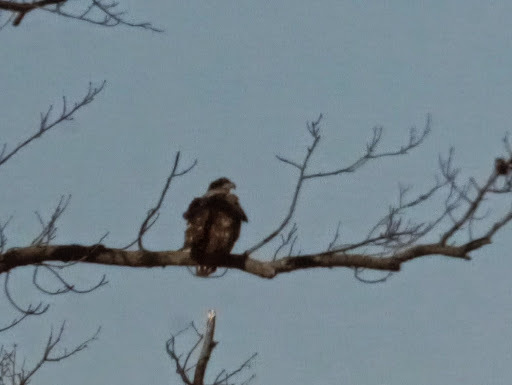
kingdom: Animalia
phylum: Chordata
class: Aves
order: Accipitriformes
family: Accipitridae
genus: Haliaeetus
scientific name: Haliaeetus leucocephalus
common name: Bald eagle
